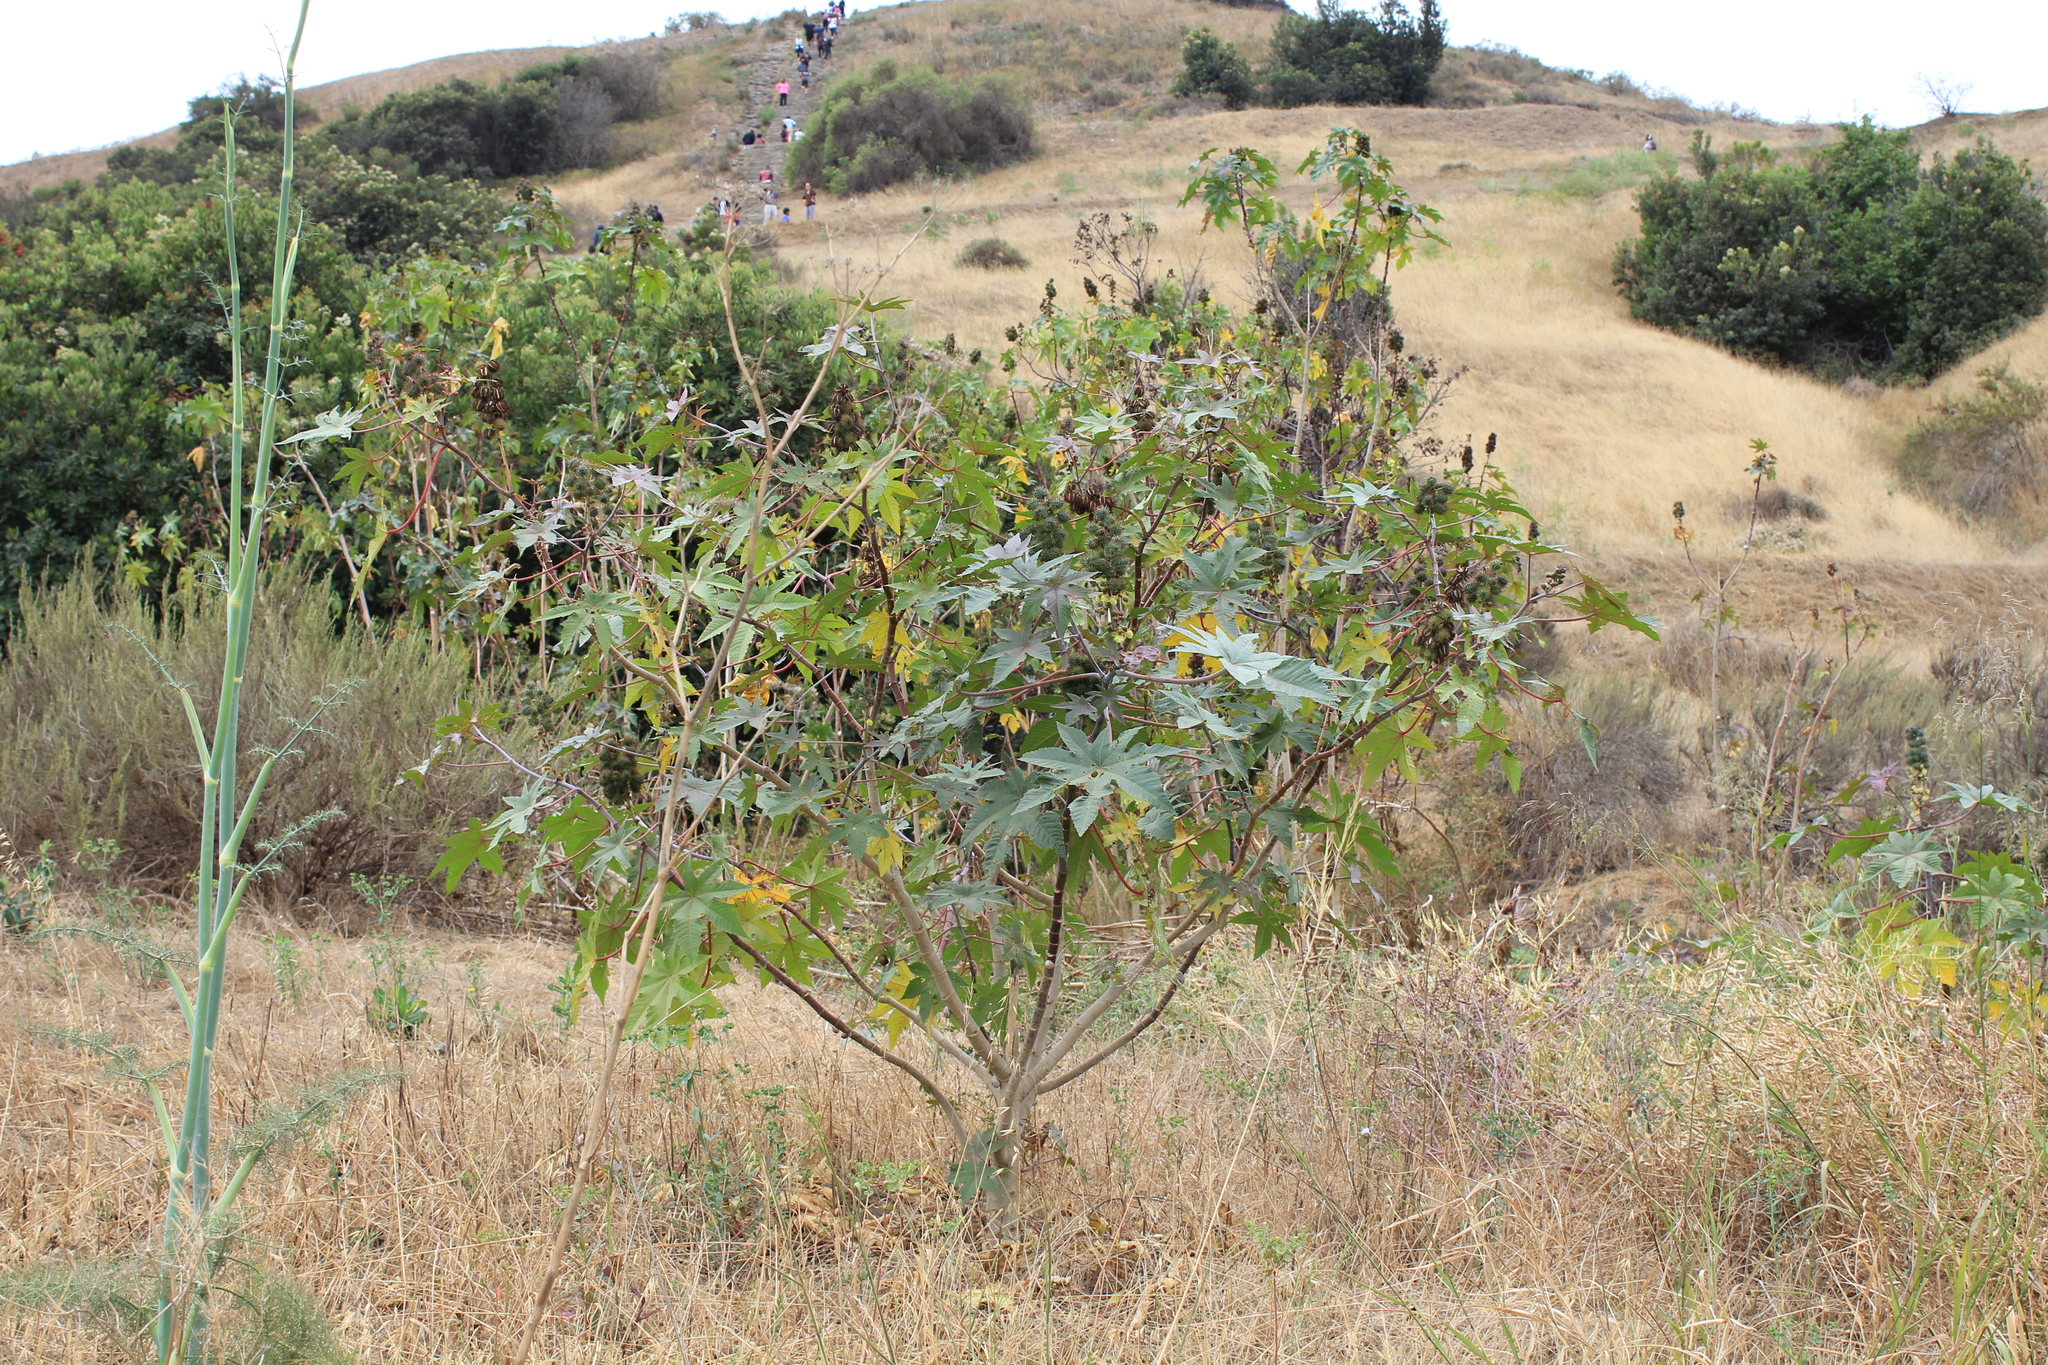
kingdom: Plantae
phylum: Tracheophyta
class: Magnoliopsida
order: Malpighiales
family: Euphorbiaceae
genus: Ricinus
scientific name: Ricinus communis
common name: Castor-oil-plant
